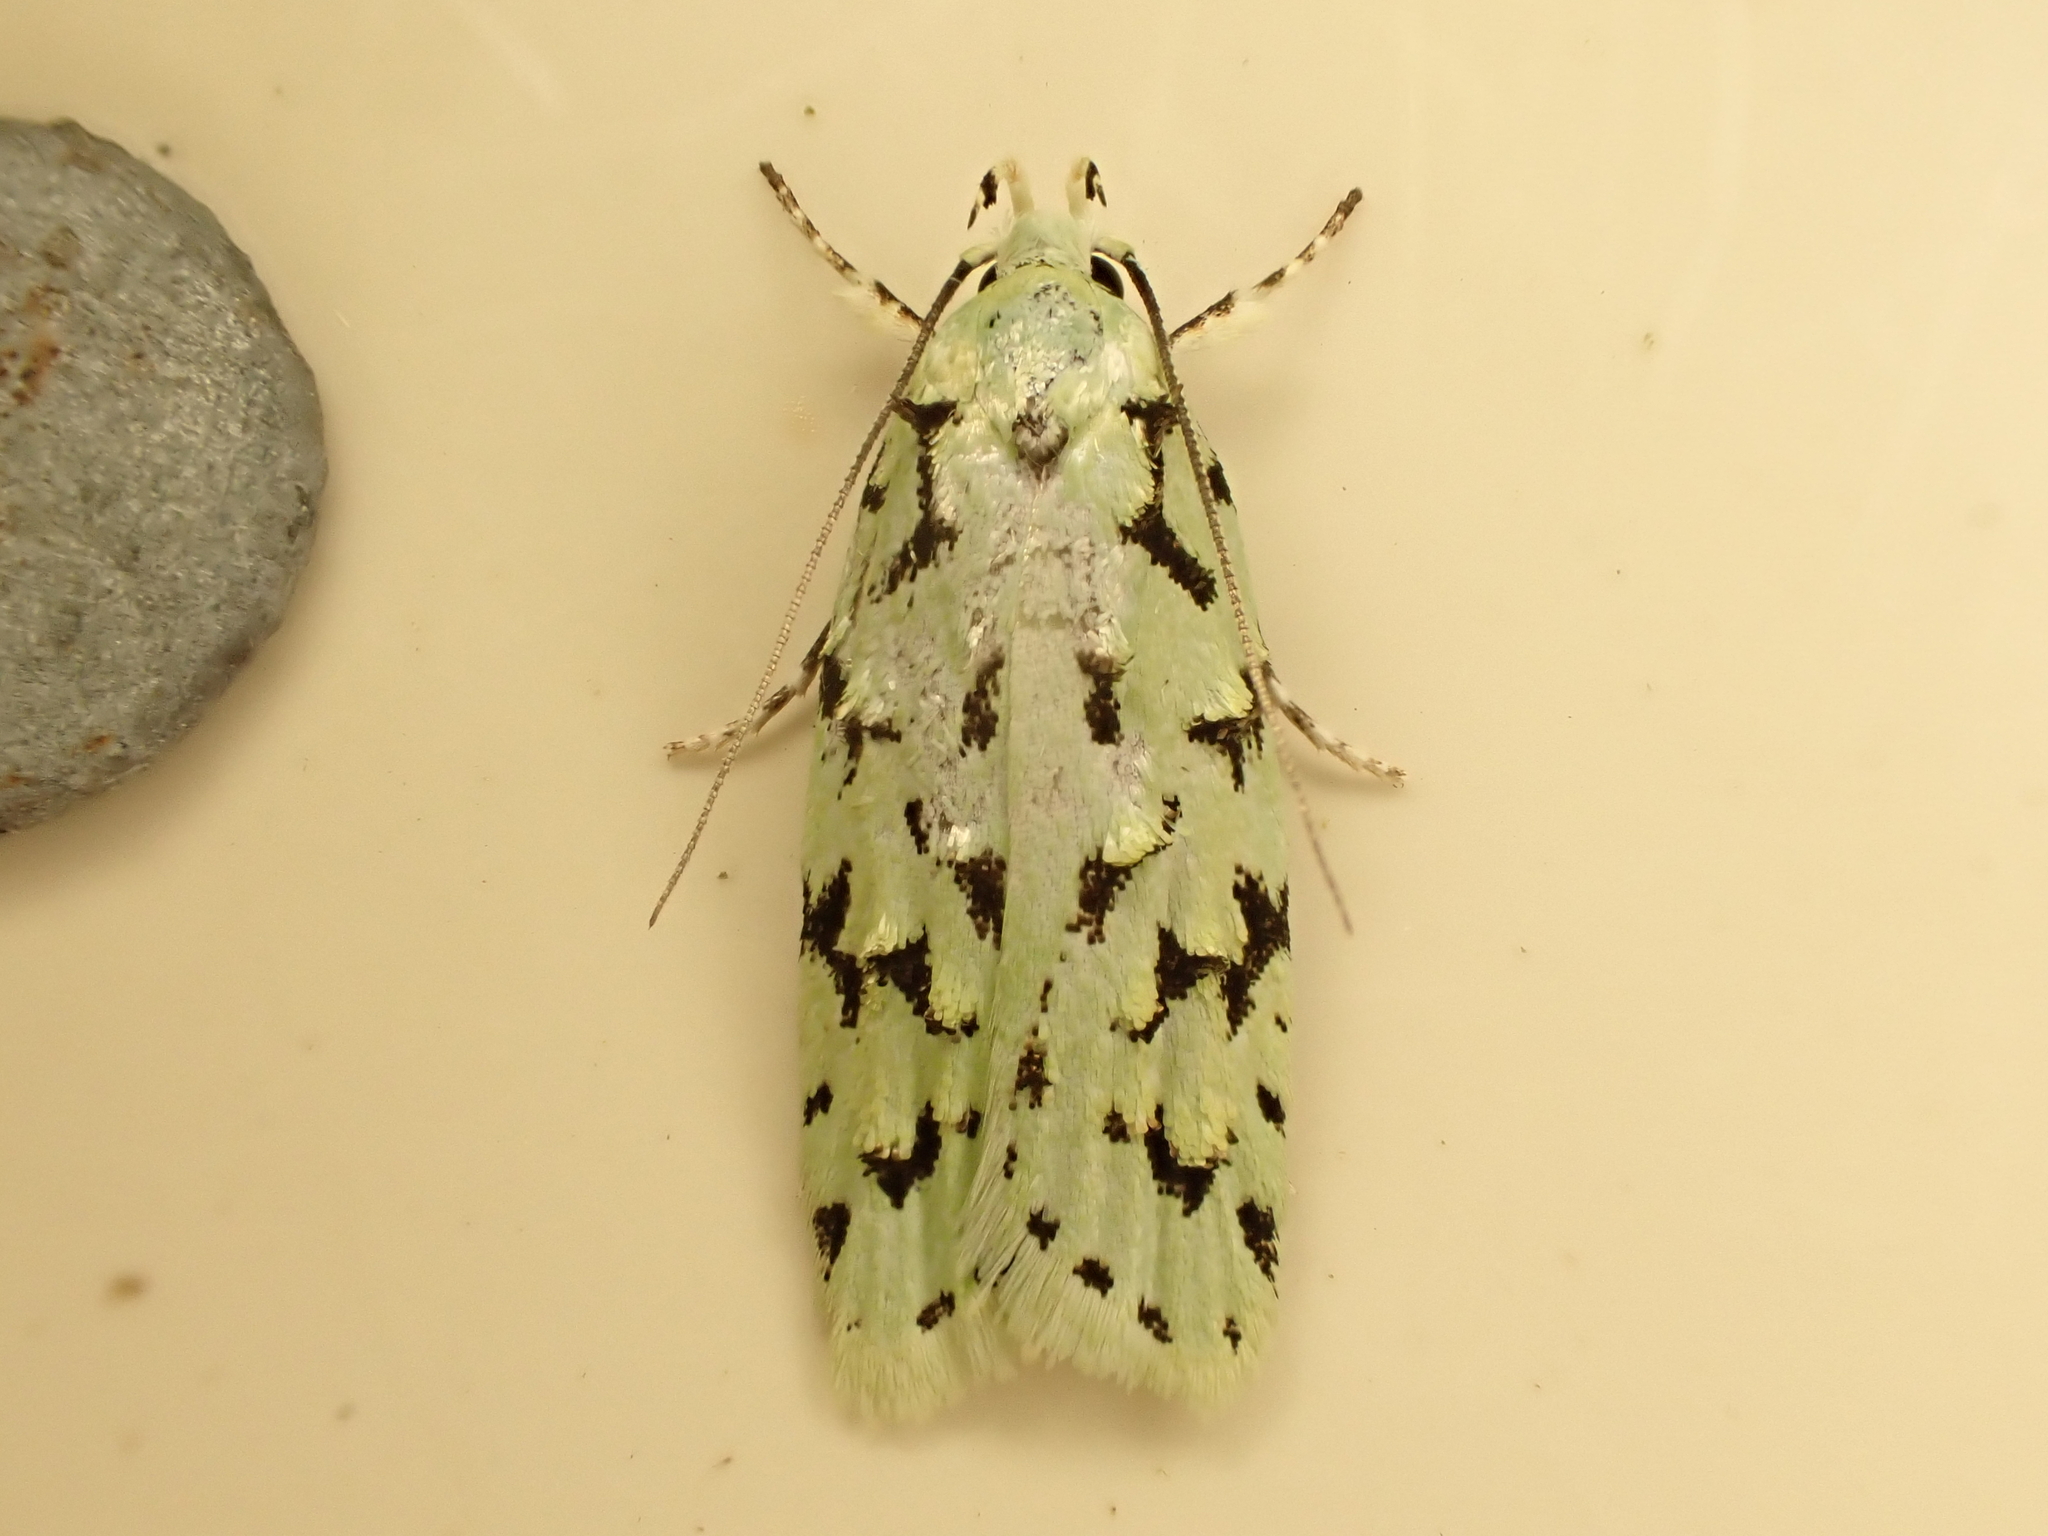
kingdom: Animalia
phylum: Arthropoda
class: Insecta
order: Lepidoptera
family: Oecophoridae
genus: Izatha
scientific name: Izatha peroneanella
